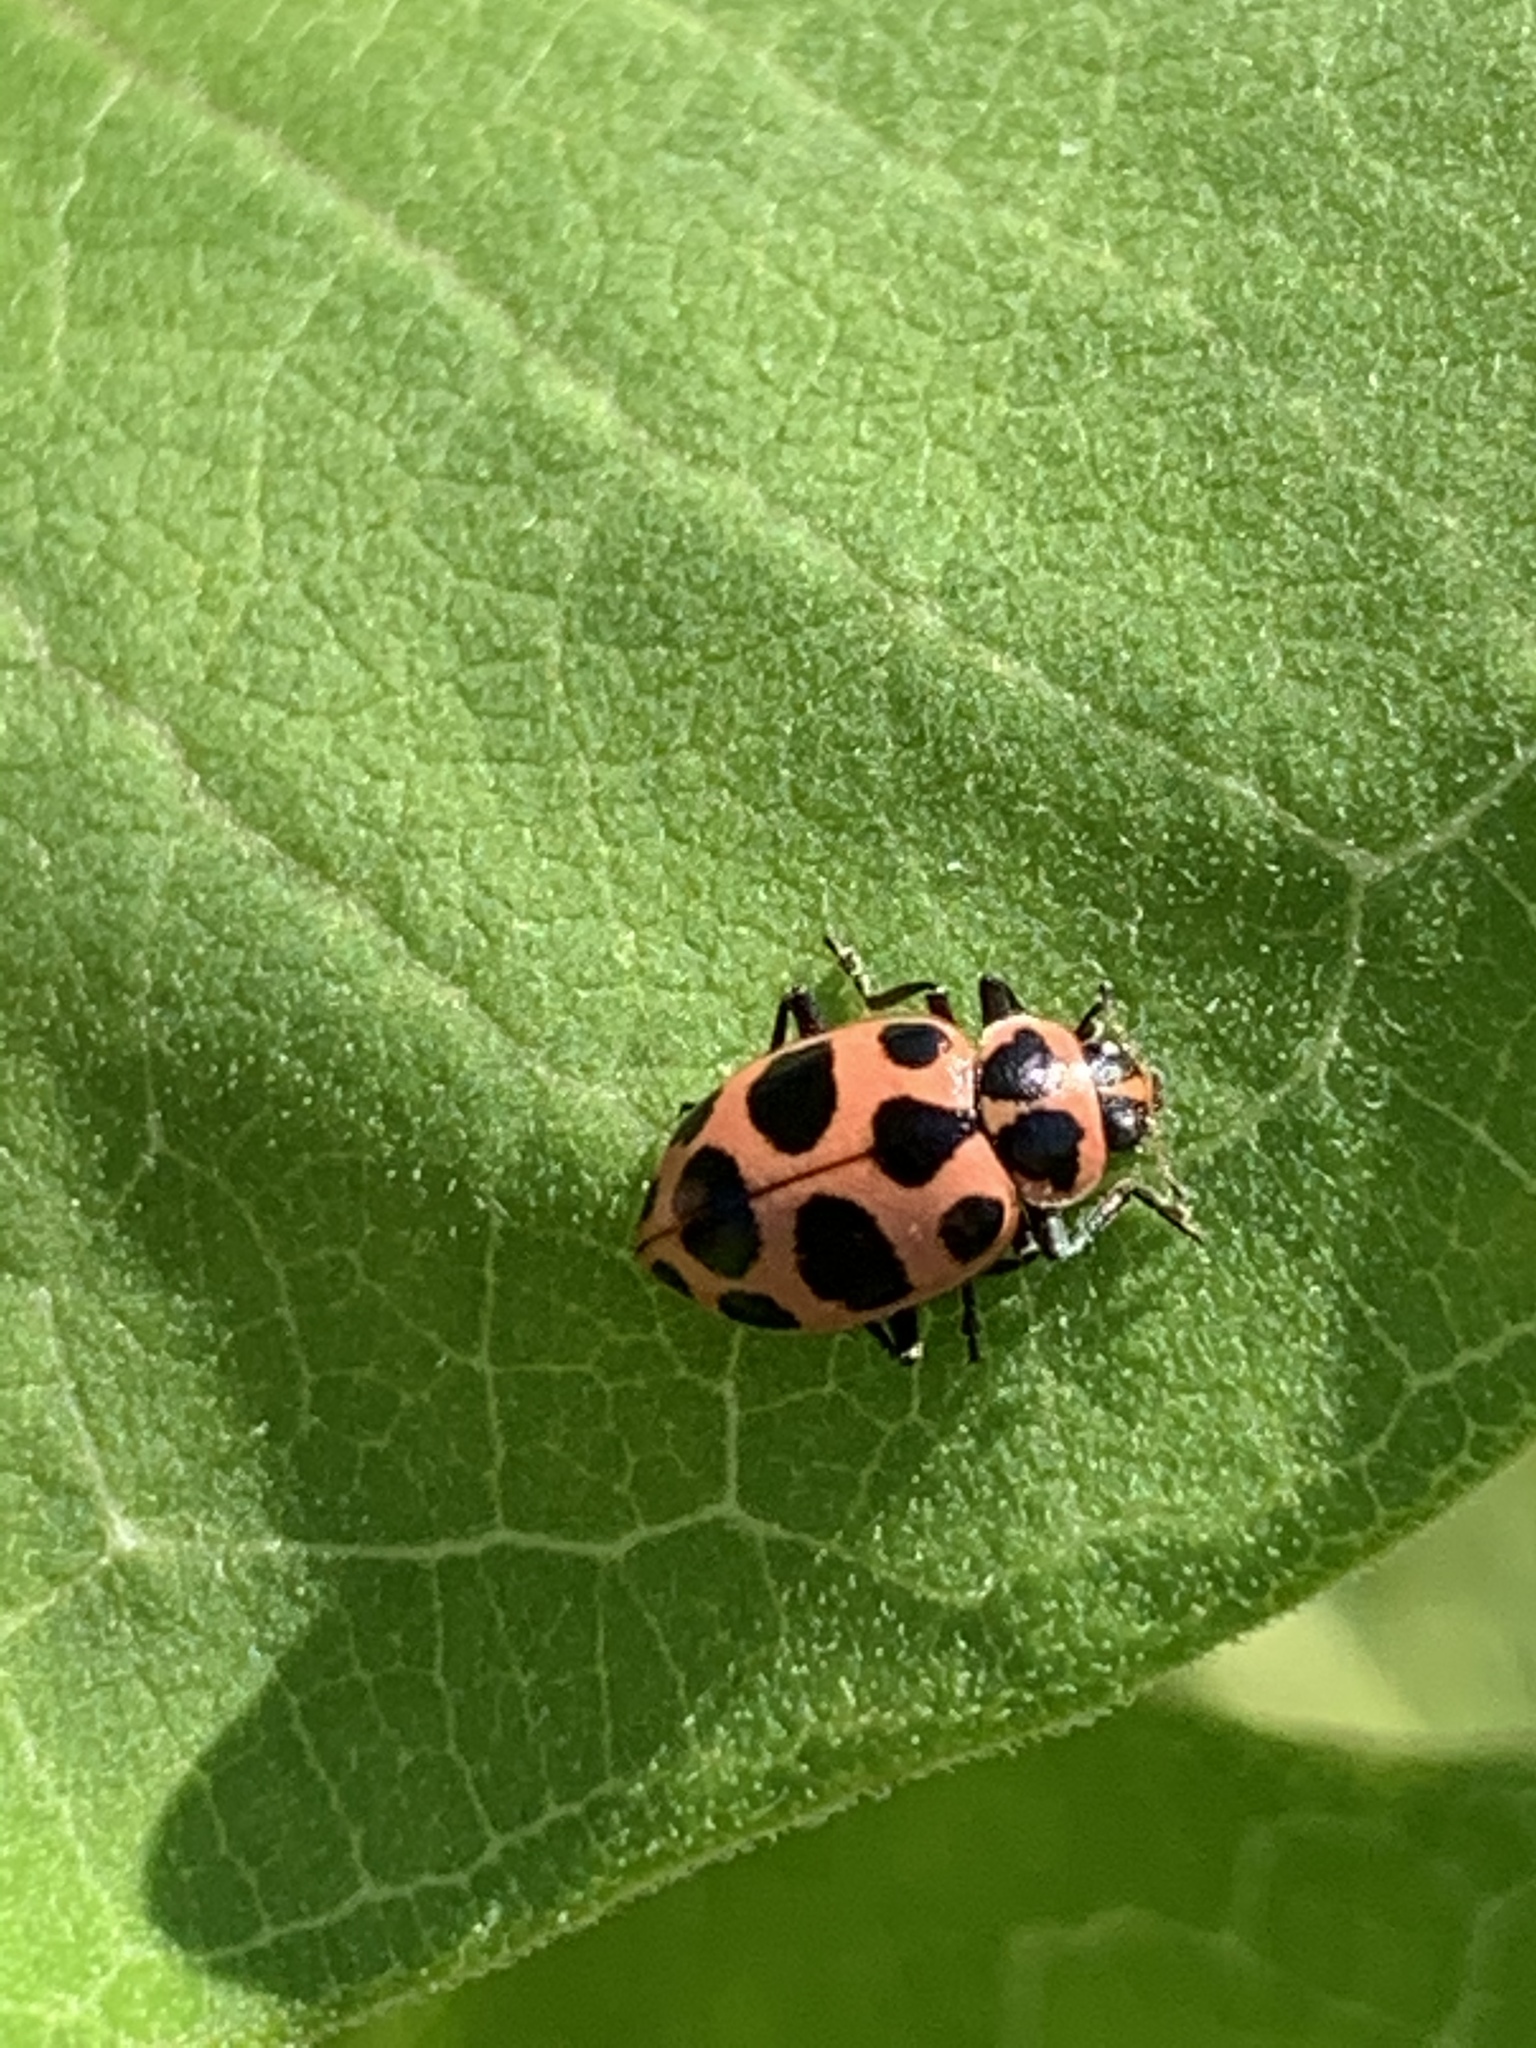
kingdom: Animalia
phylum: Arthropoda
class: Insecta
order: Coleoptera
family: Coccinellidae
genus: Coleomegilla
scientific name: Coleomegilla maculata
